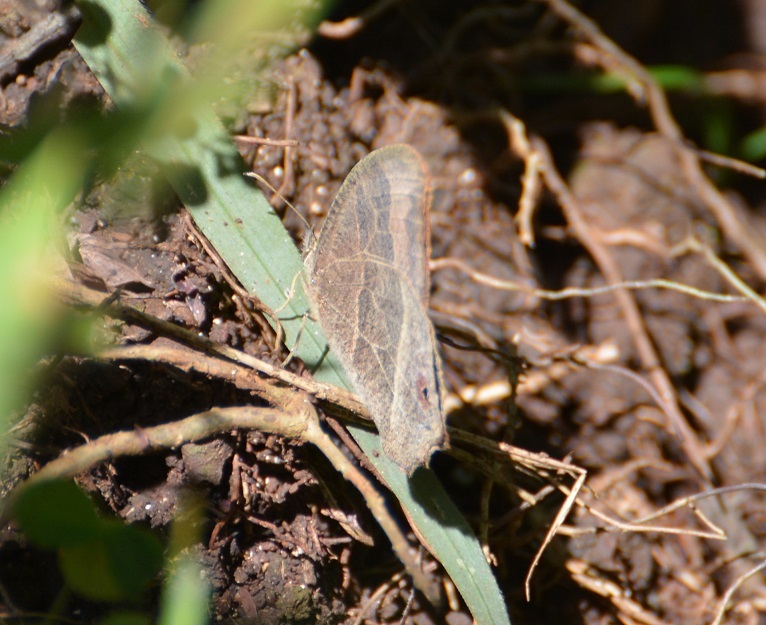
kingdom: Animalia
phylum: Arthropoda
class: Insecta
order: Lepidoptera
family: Nymphalidae
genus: Euptychia
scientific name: Euptychia Cyllopsis hedemanni
